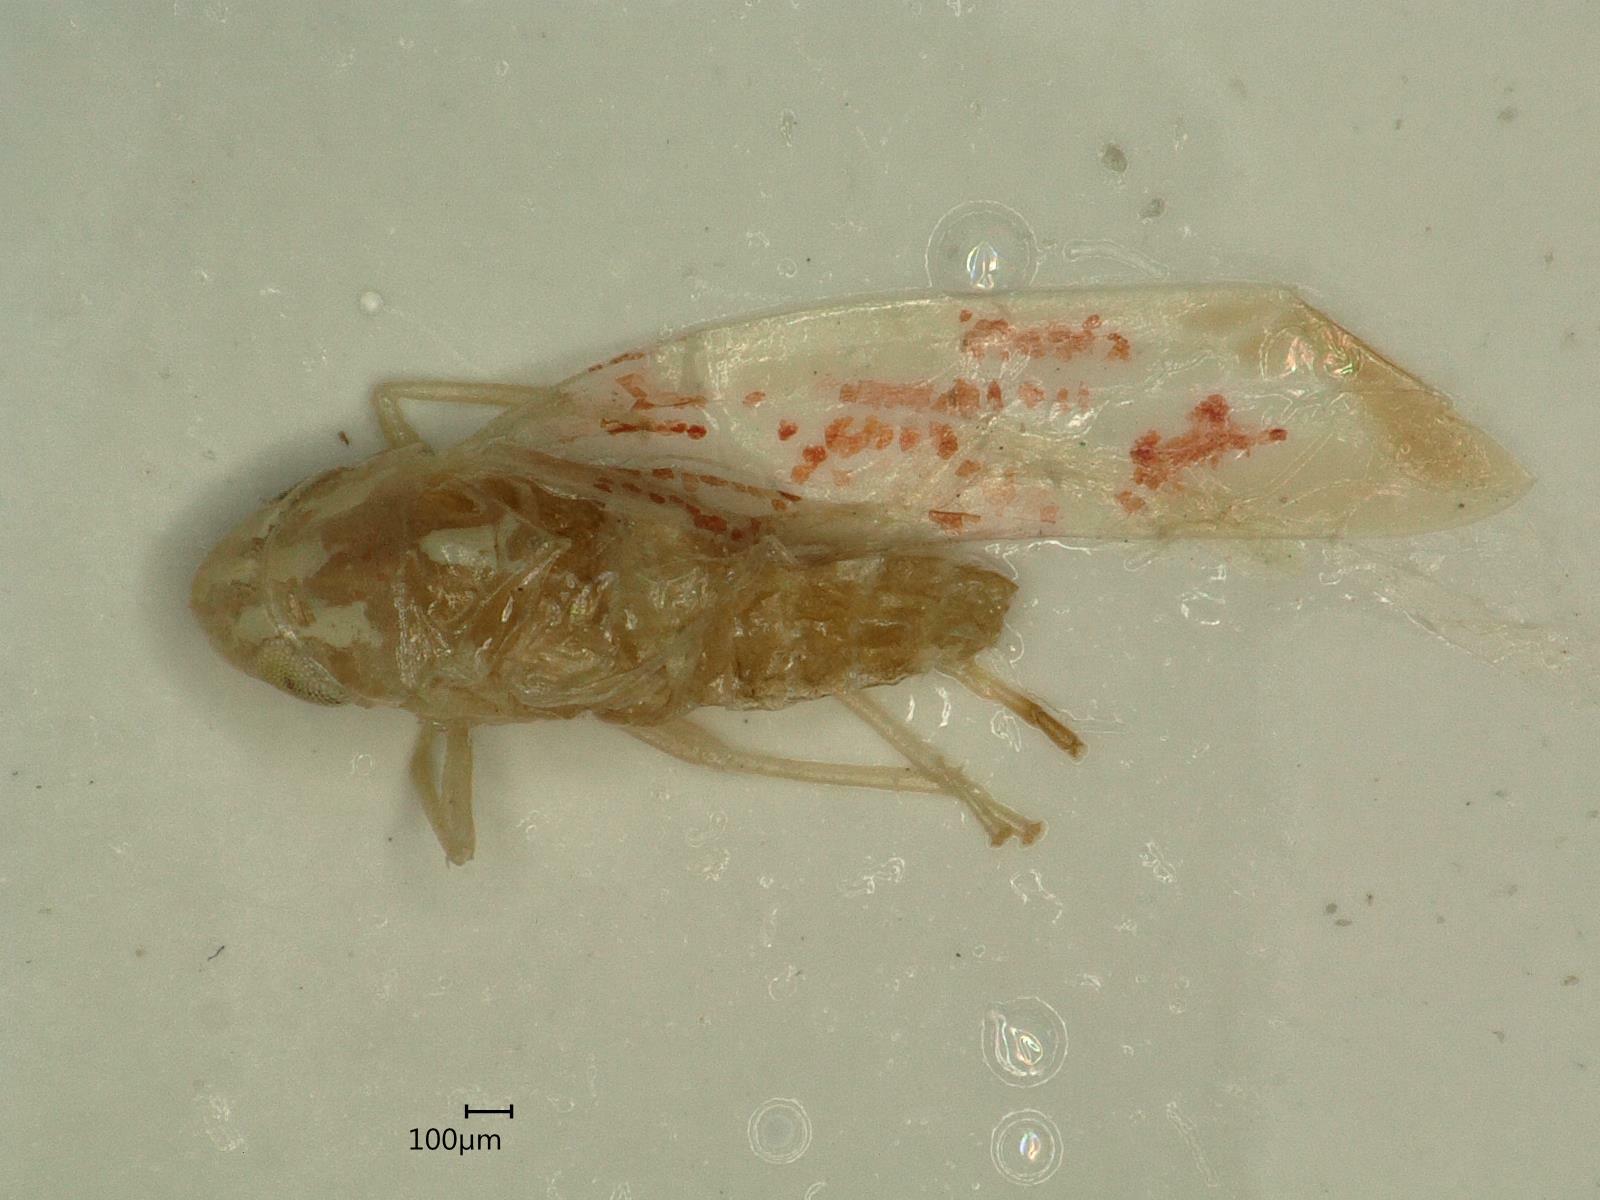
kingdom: Animalia
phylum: Arthropoda
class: Insecta
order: Hemiptera
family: Cicadellidae
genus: Zygina
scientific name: Zygina griseombra
